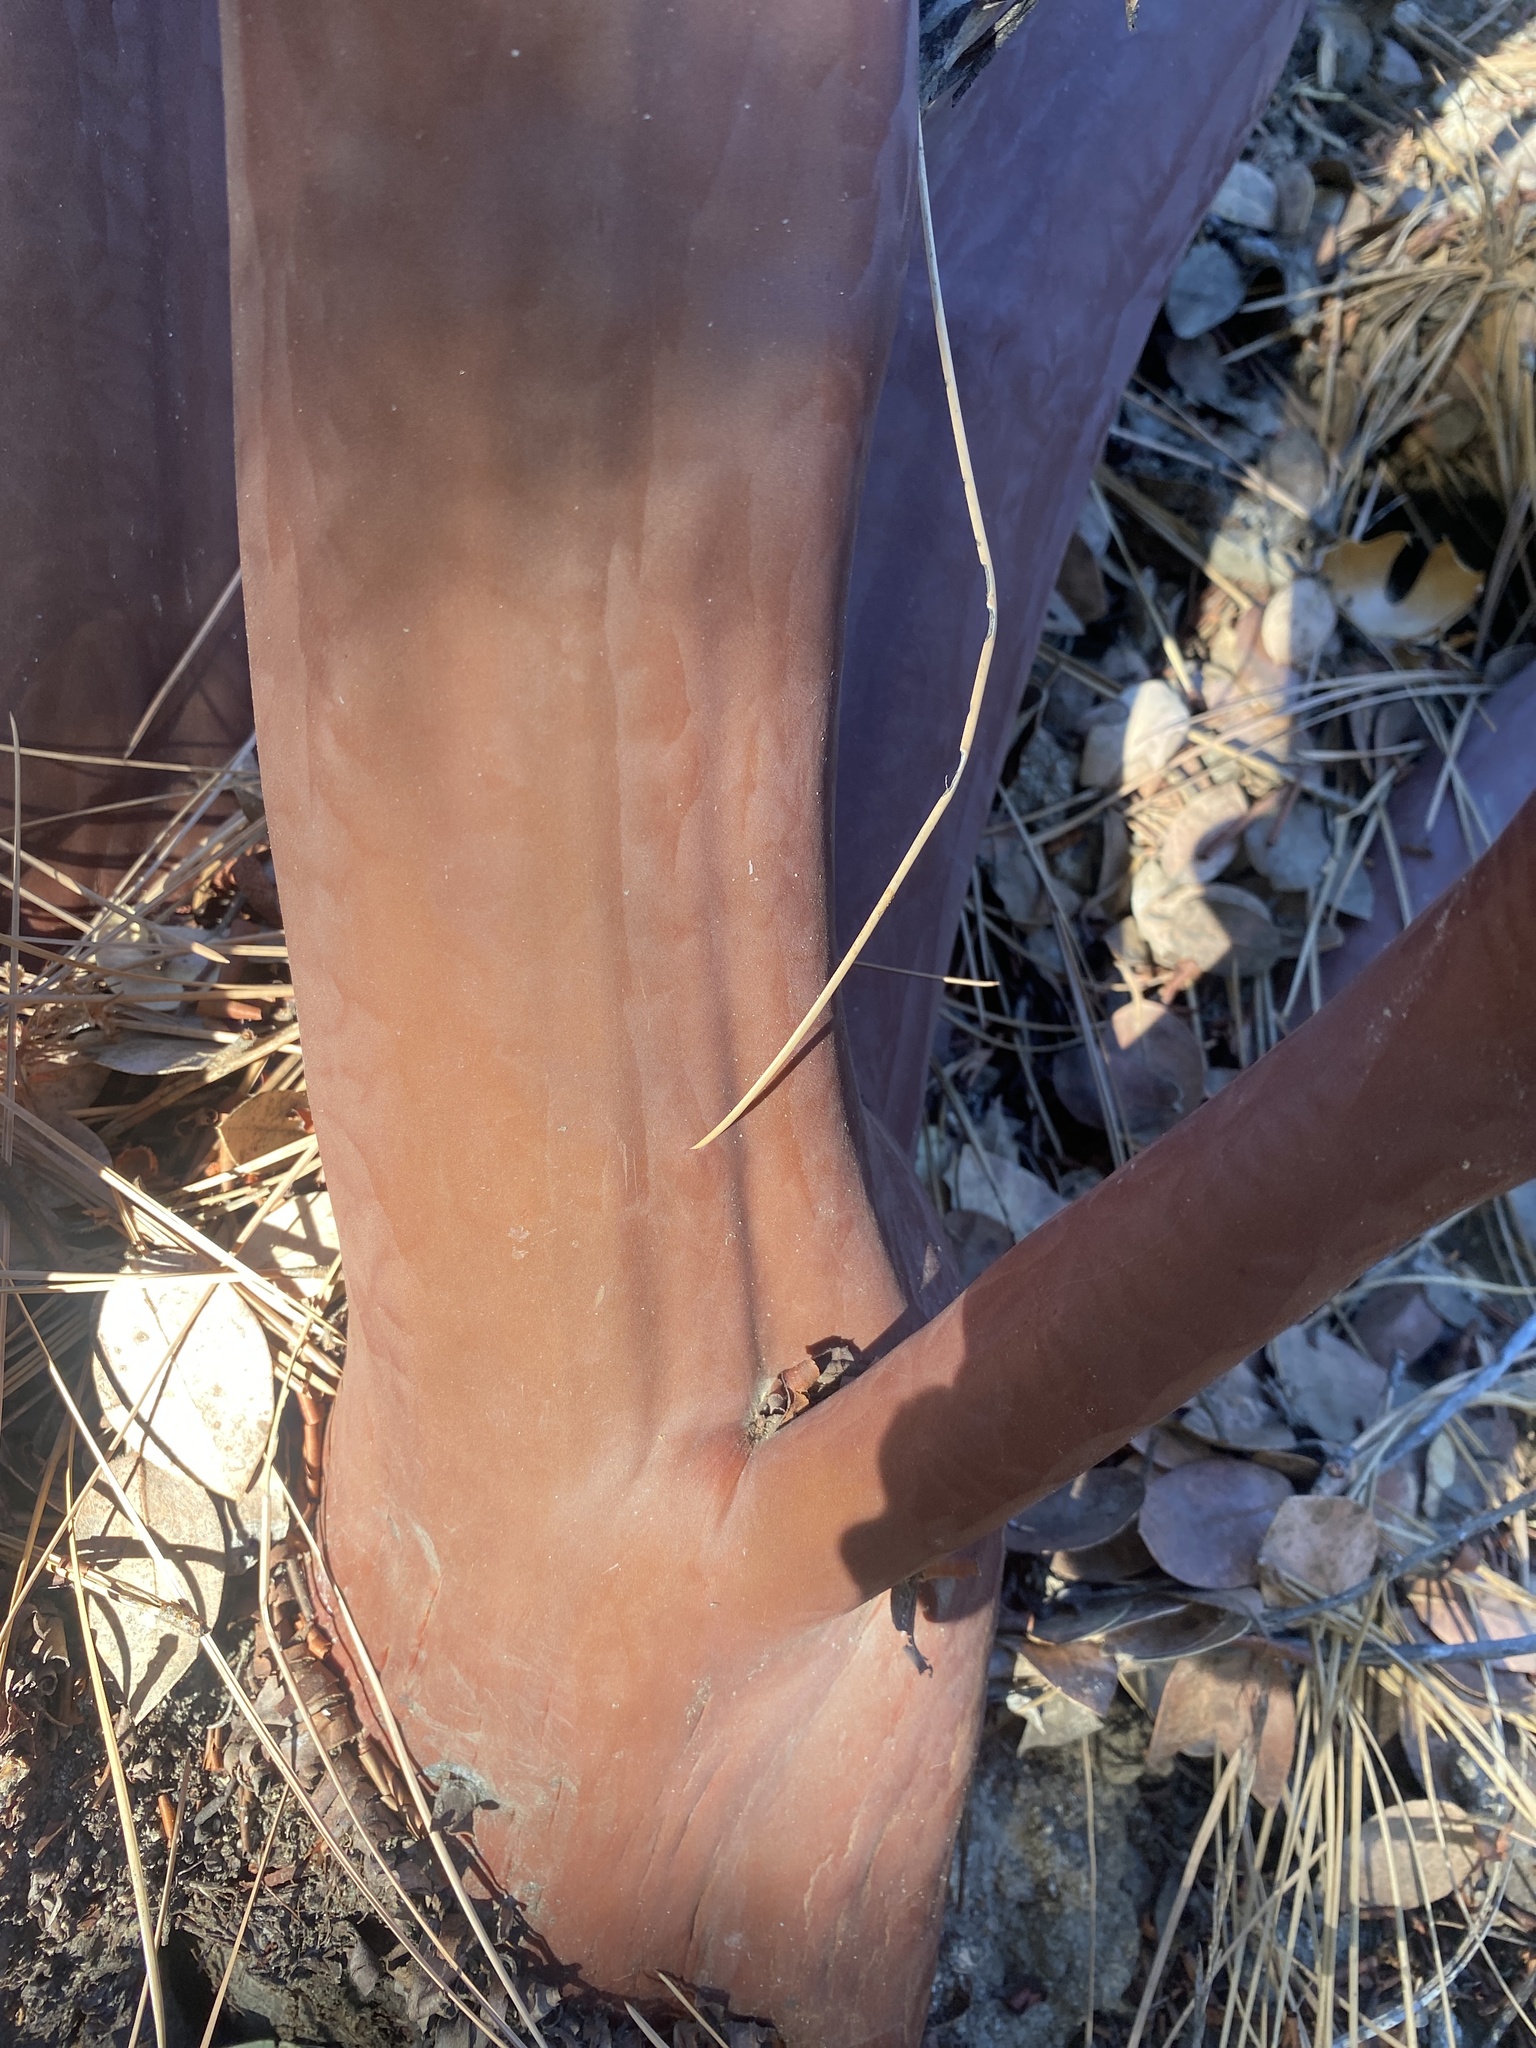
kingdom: Plantae
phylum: Tracheophyta
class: Magnoliopsida
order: Ericales
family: Ericaceae
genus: Arctostaphylos
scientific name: Arctostaphylos pringlei
